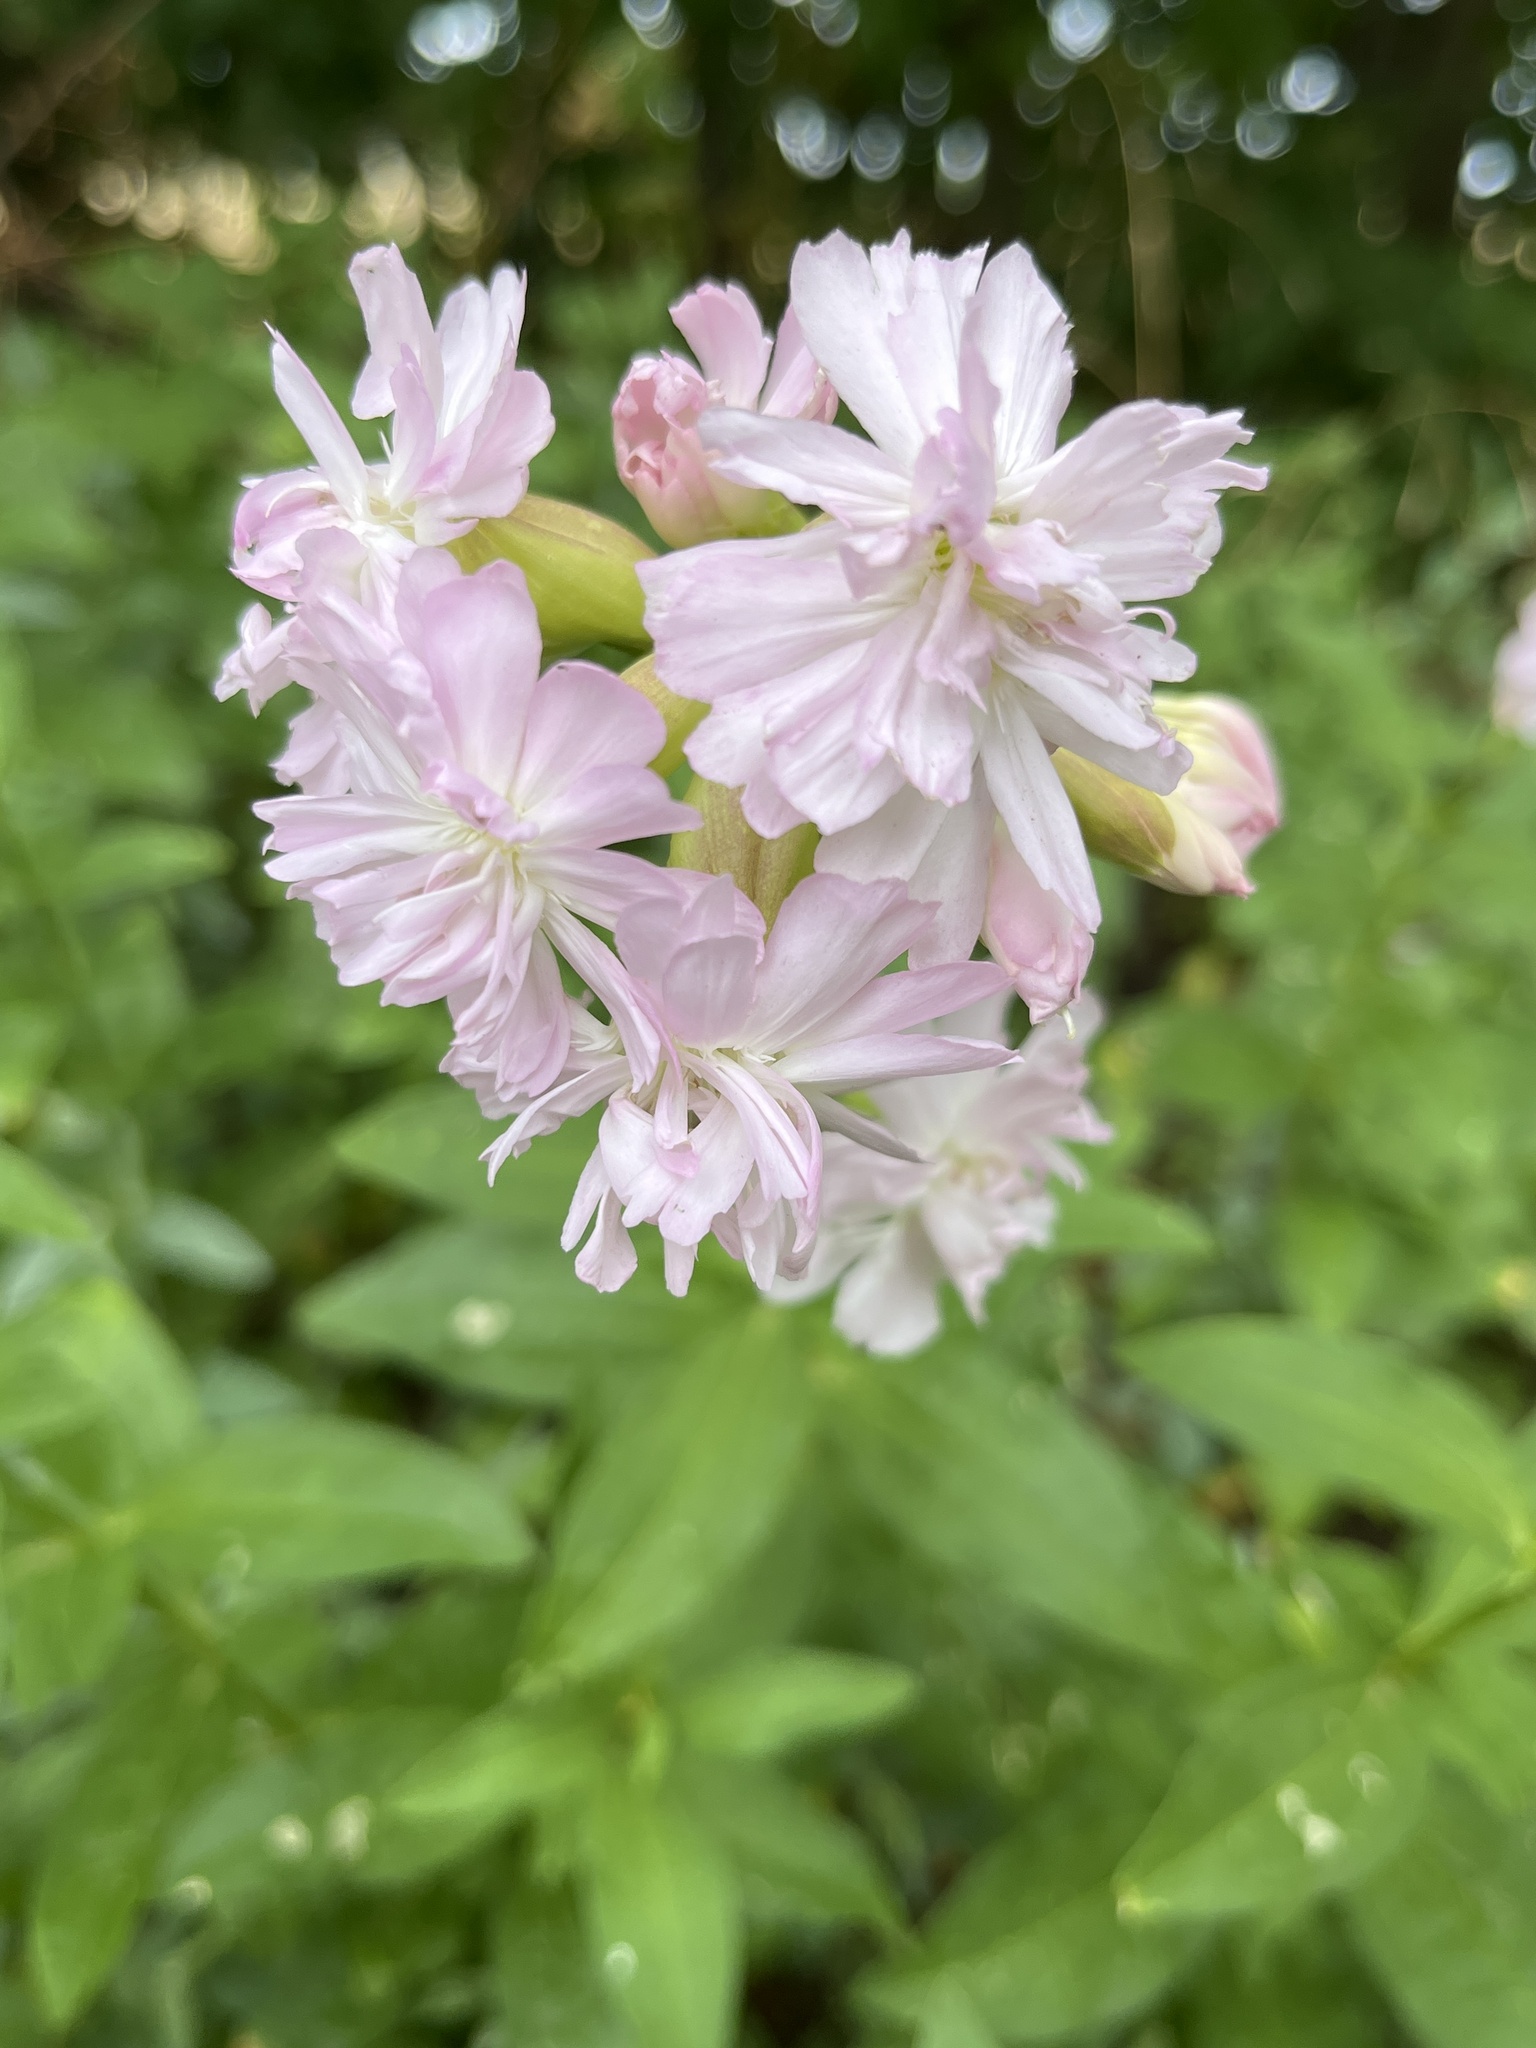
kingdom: Plantae
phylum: Tracheophyta
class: Magnoliopsida
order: Caryophyllales
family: Caryophyllaceae
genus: Saponaria
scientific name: Saponaria officinalis
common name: Soapwort
